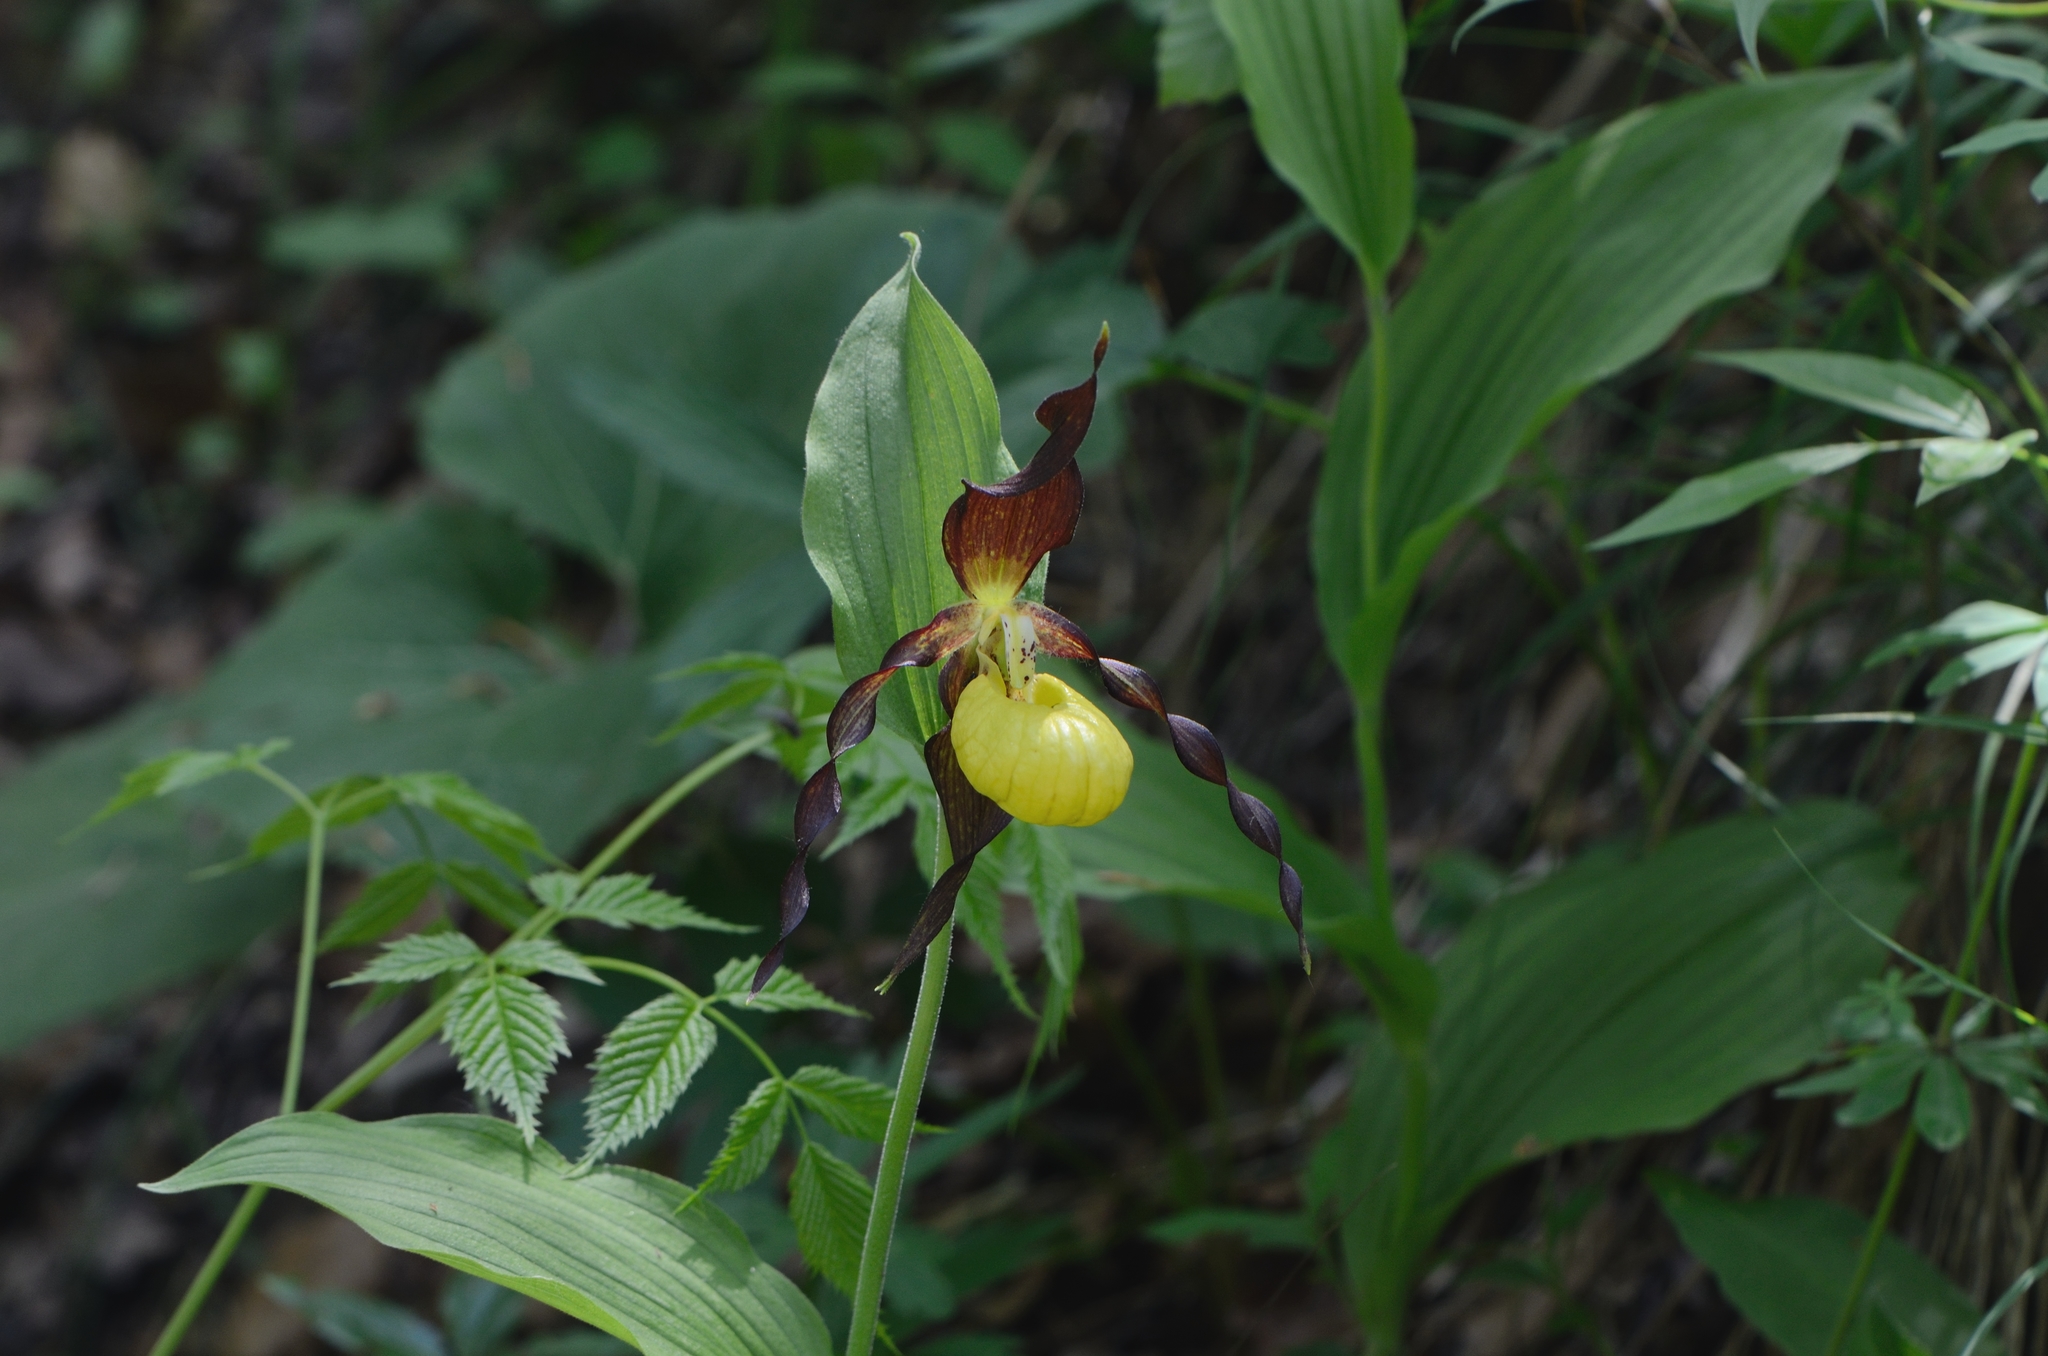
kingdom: Plantae
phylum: Tracheophyta
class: Liliopsida
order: Asparagales
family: Orchidaceae
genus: Cypripedium
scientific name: Cypripedium calceolus
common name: Lady's-slipper
